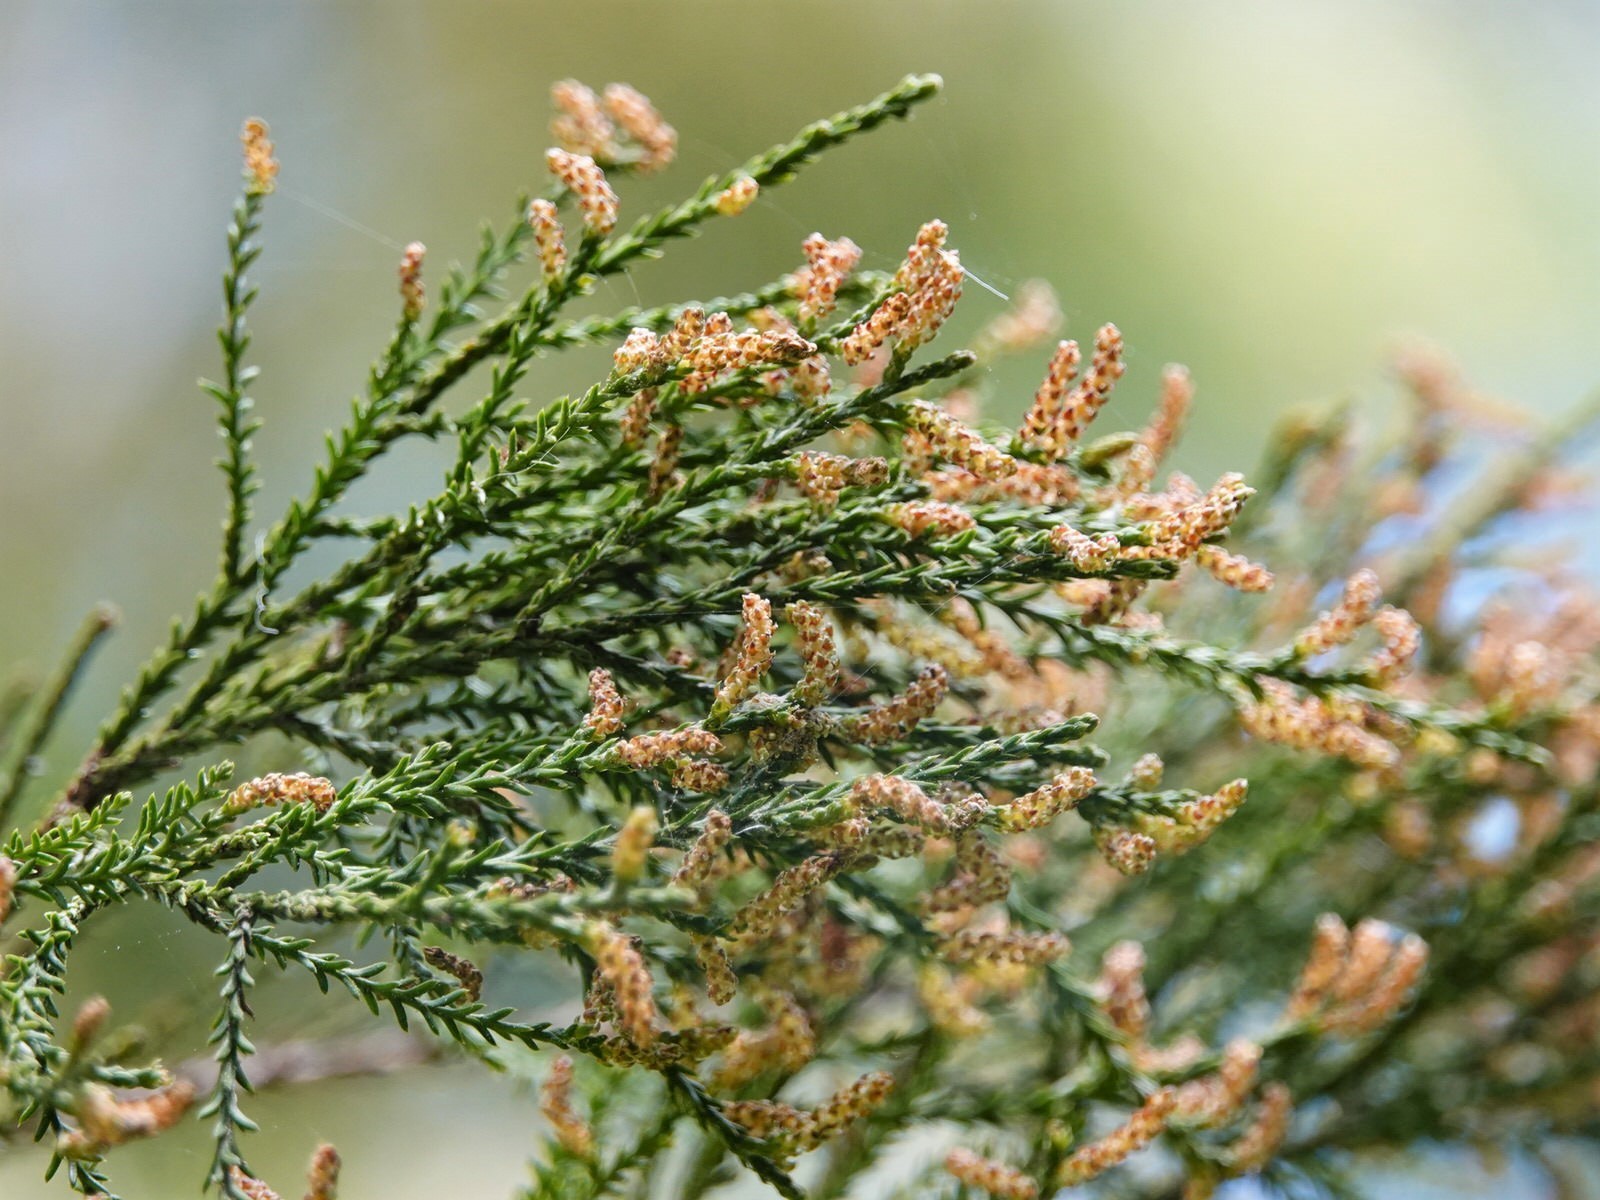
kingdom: Plantae
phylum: Tracheophyta
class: Pinopsida
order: Pinales
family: Podocarpaceae
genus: Dacrycarpus
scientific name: Dacrycarpus dacrydioides
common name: White pine
